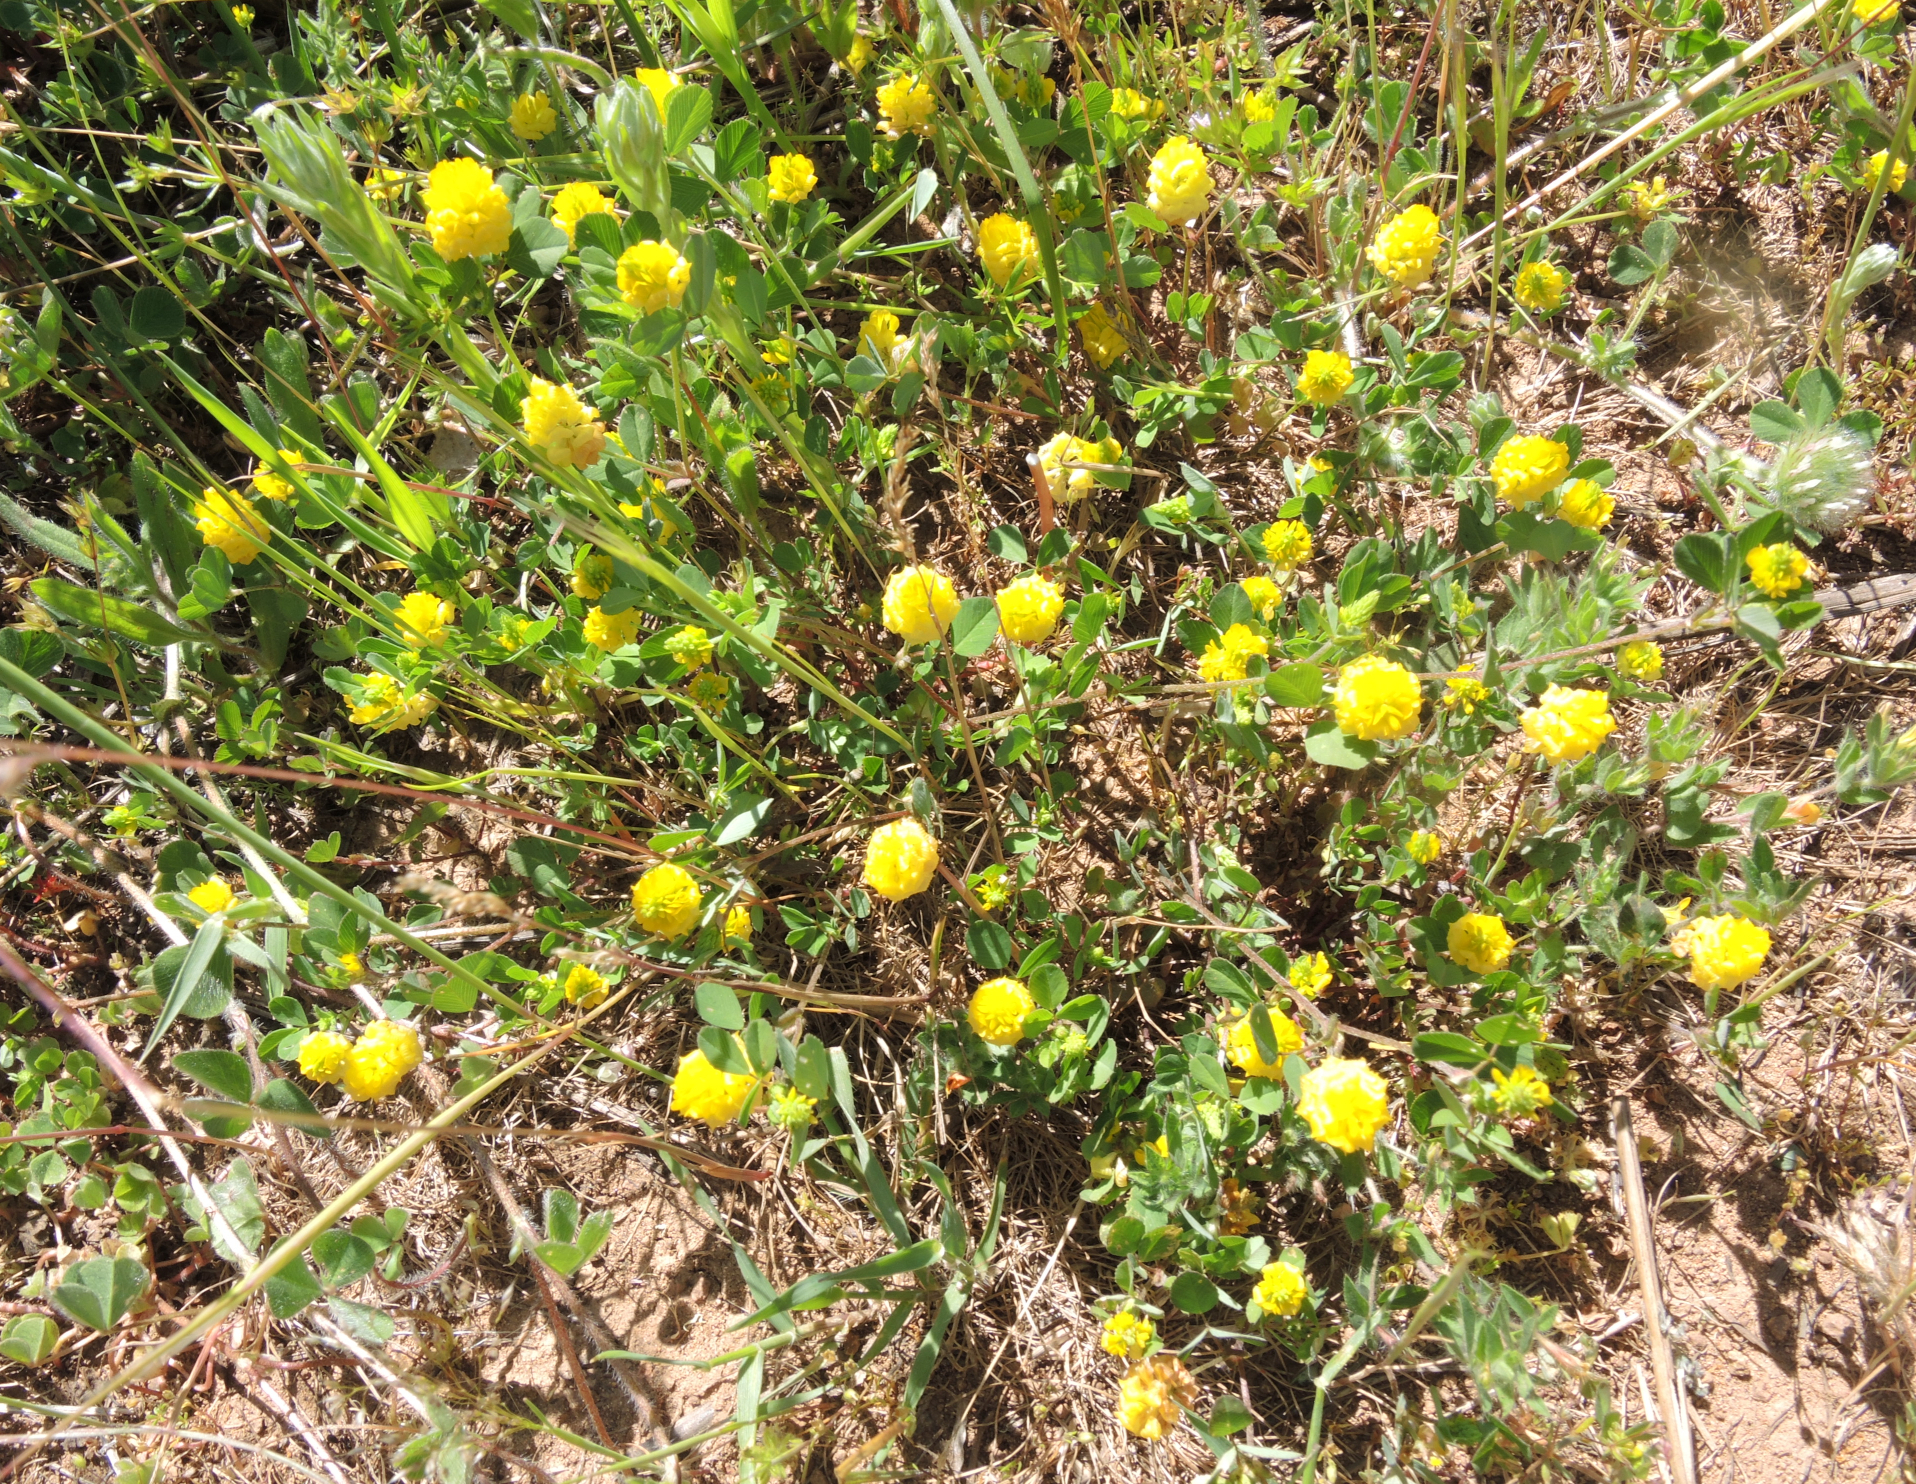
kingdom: Plantae
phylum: Tracheophyta
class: Magnoliopsida
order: Fabales
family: Fabaceae
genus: Trifolium
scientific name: Trifolium campestre
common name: Field clover
